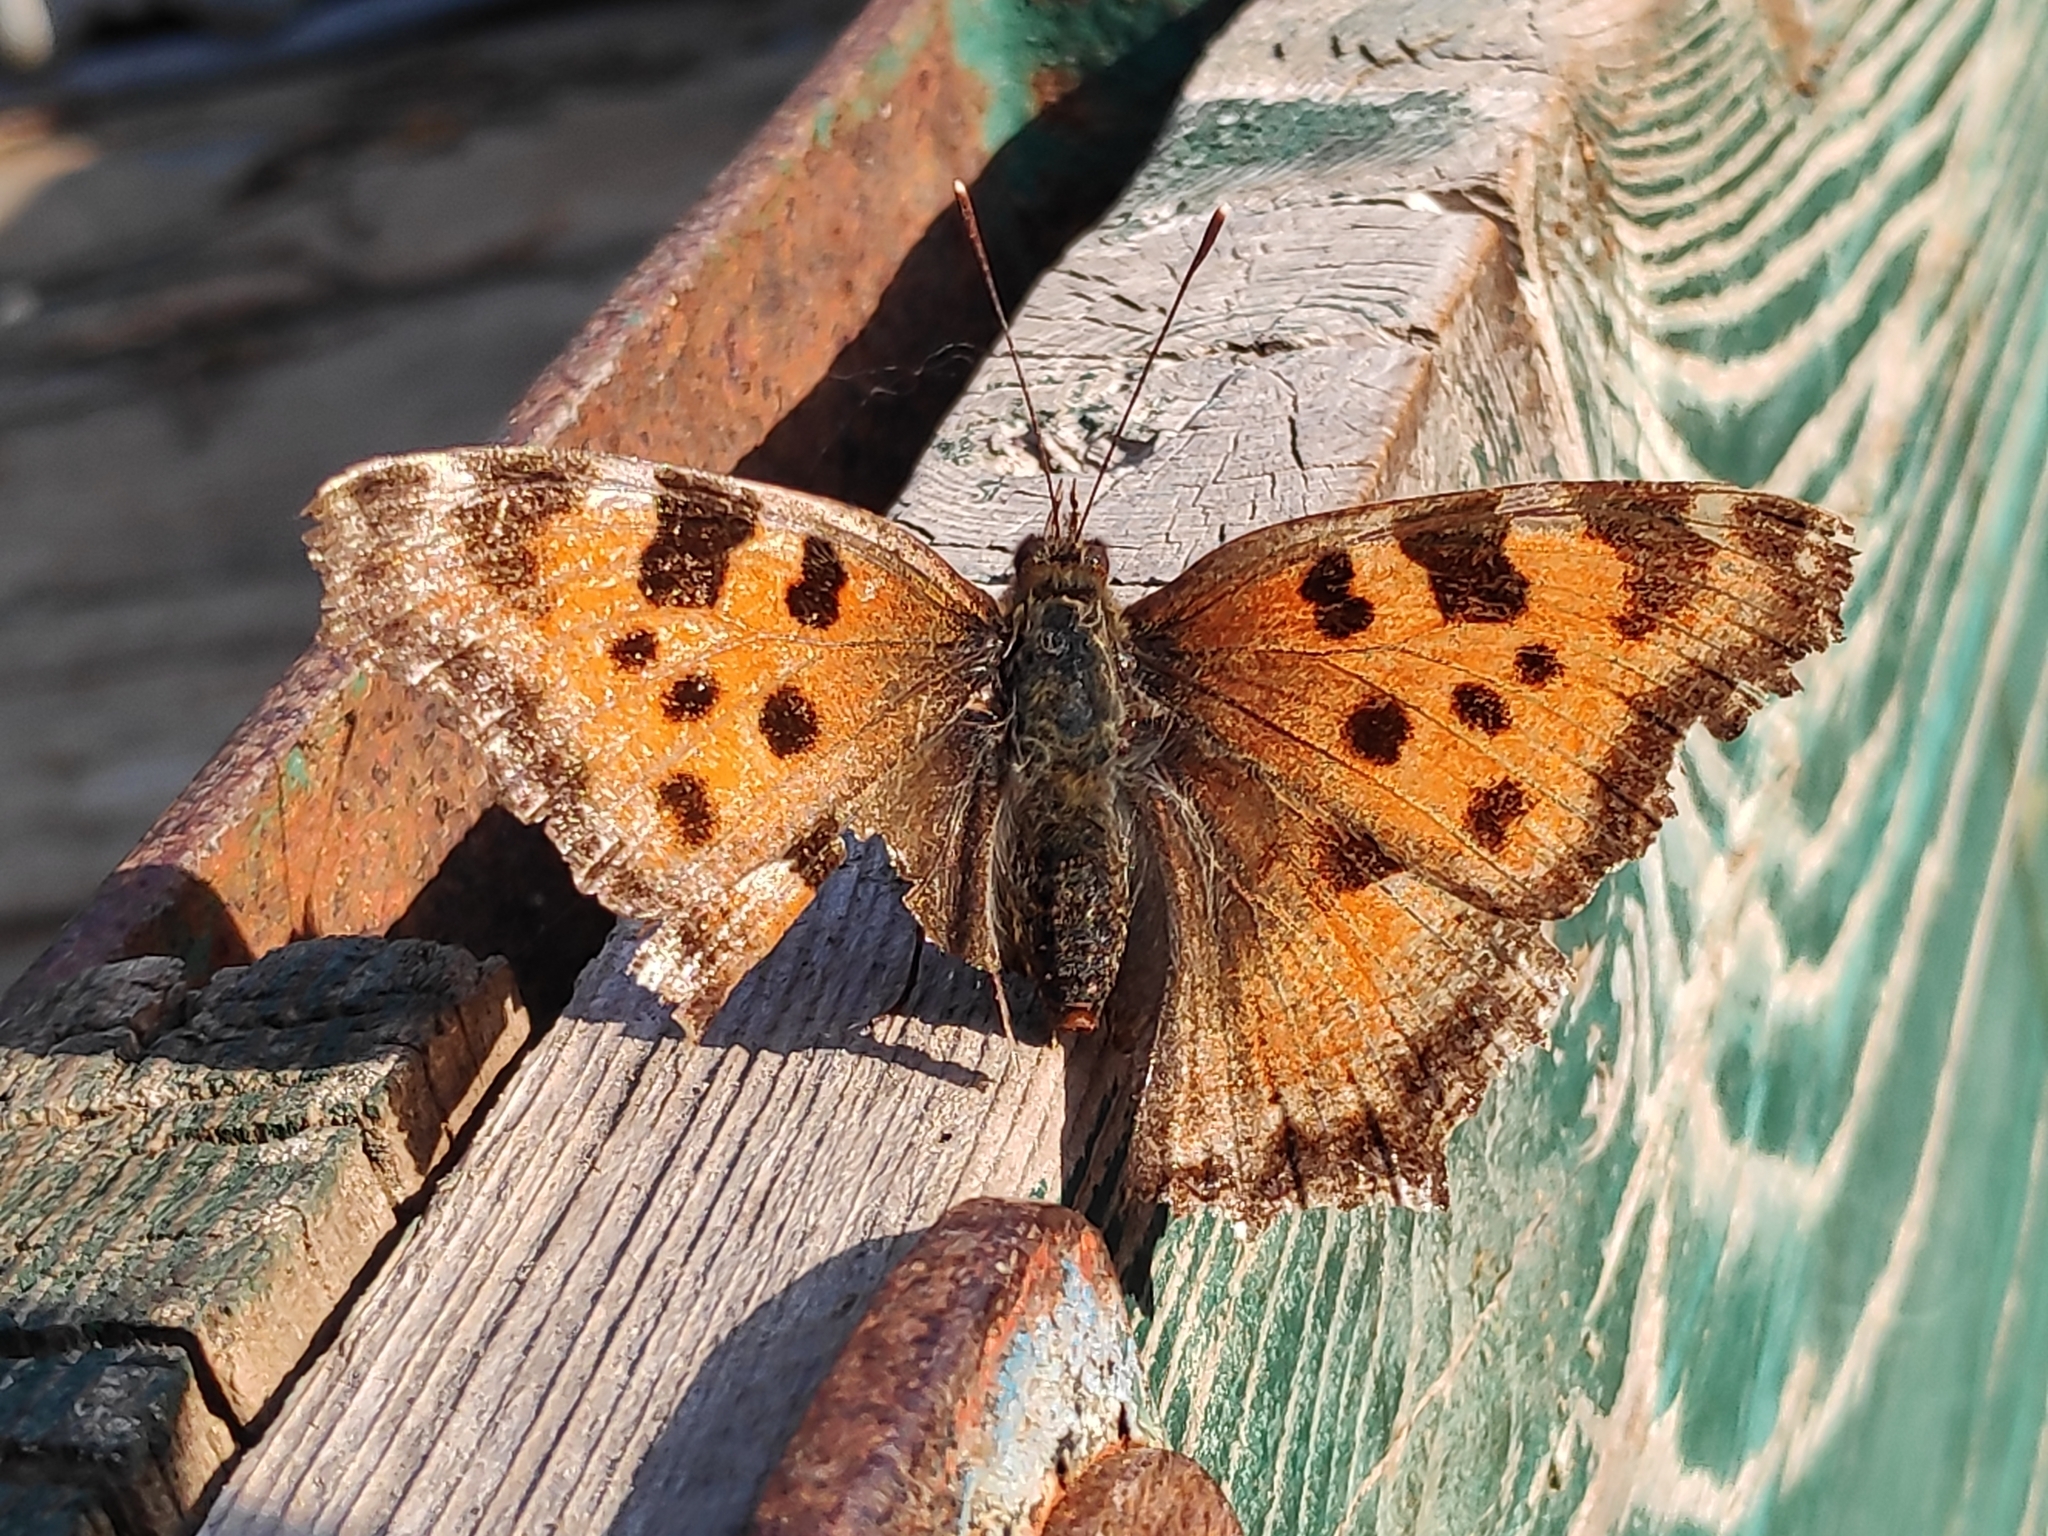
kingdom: Animalia
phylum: Arthropoda
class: Insecta
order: Lepidoptera
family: Nymphalidae
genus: Nymphalis
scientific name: Nymphalis polychloros
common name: Large tortoiseshell
